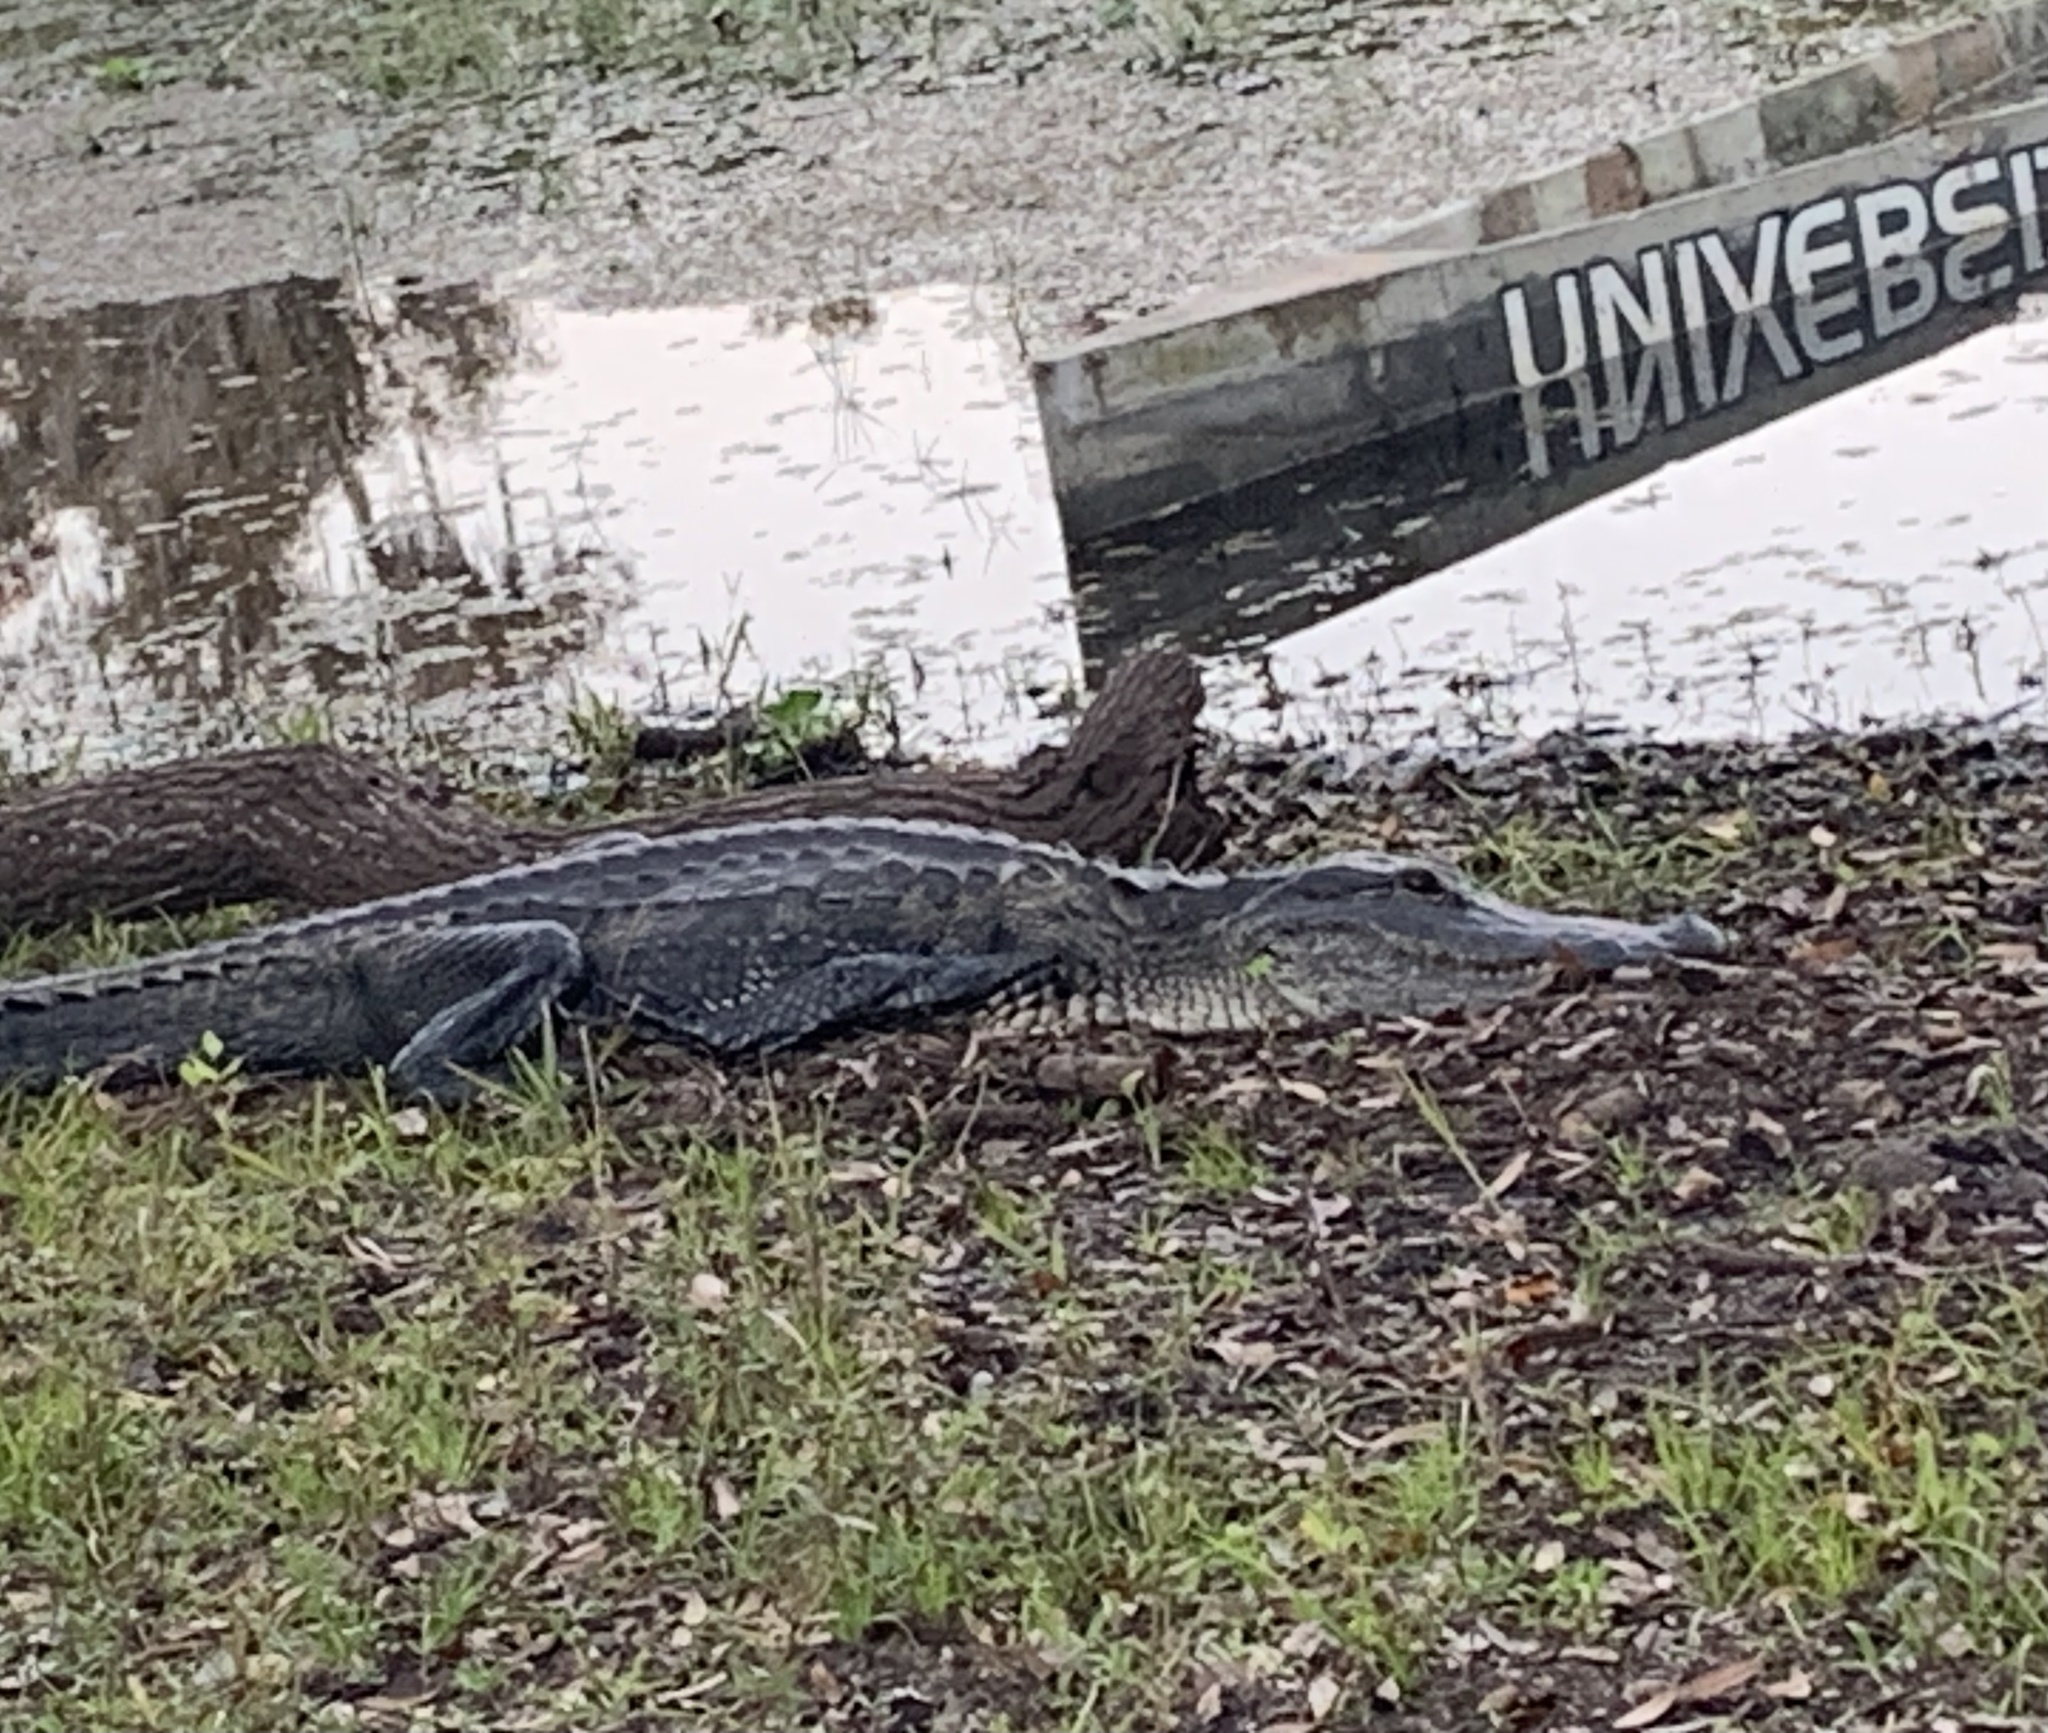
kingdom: Animalia
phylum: Chordata
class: Crocodylia
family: Alligatoridae
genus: Alligator
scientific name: Alligator mississippiensis
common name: American alligator
